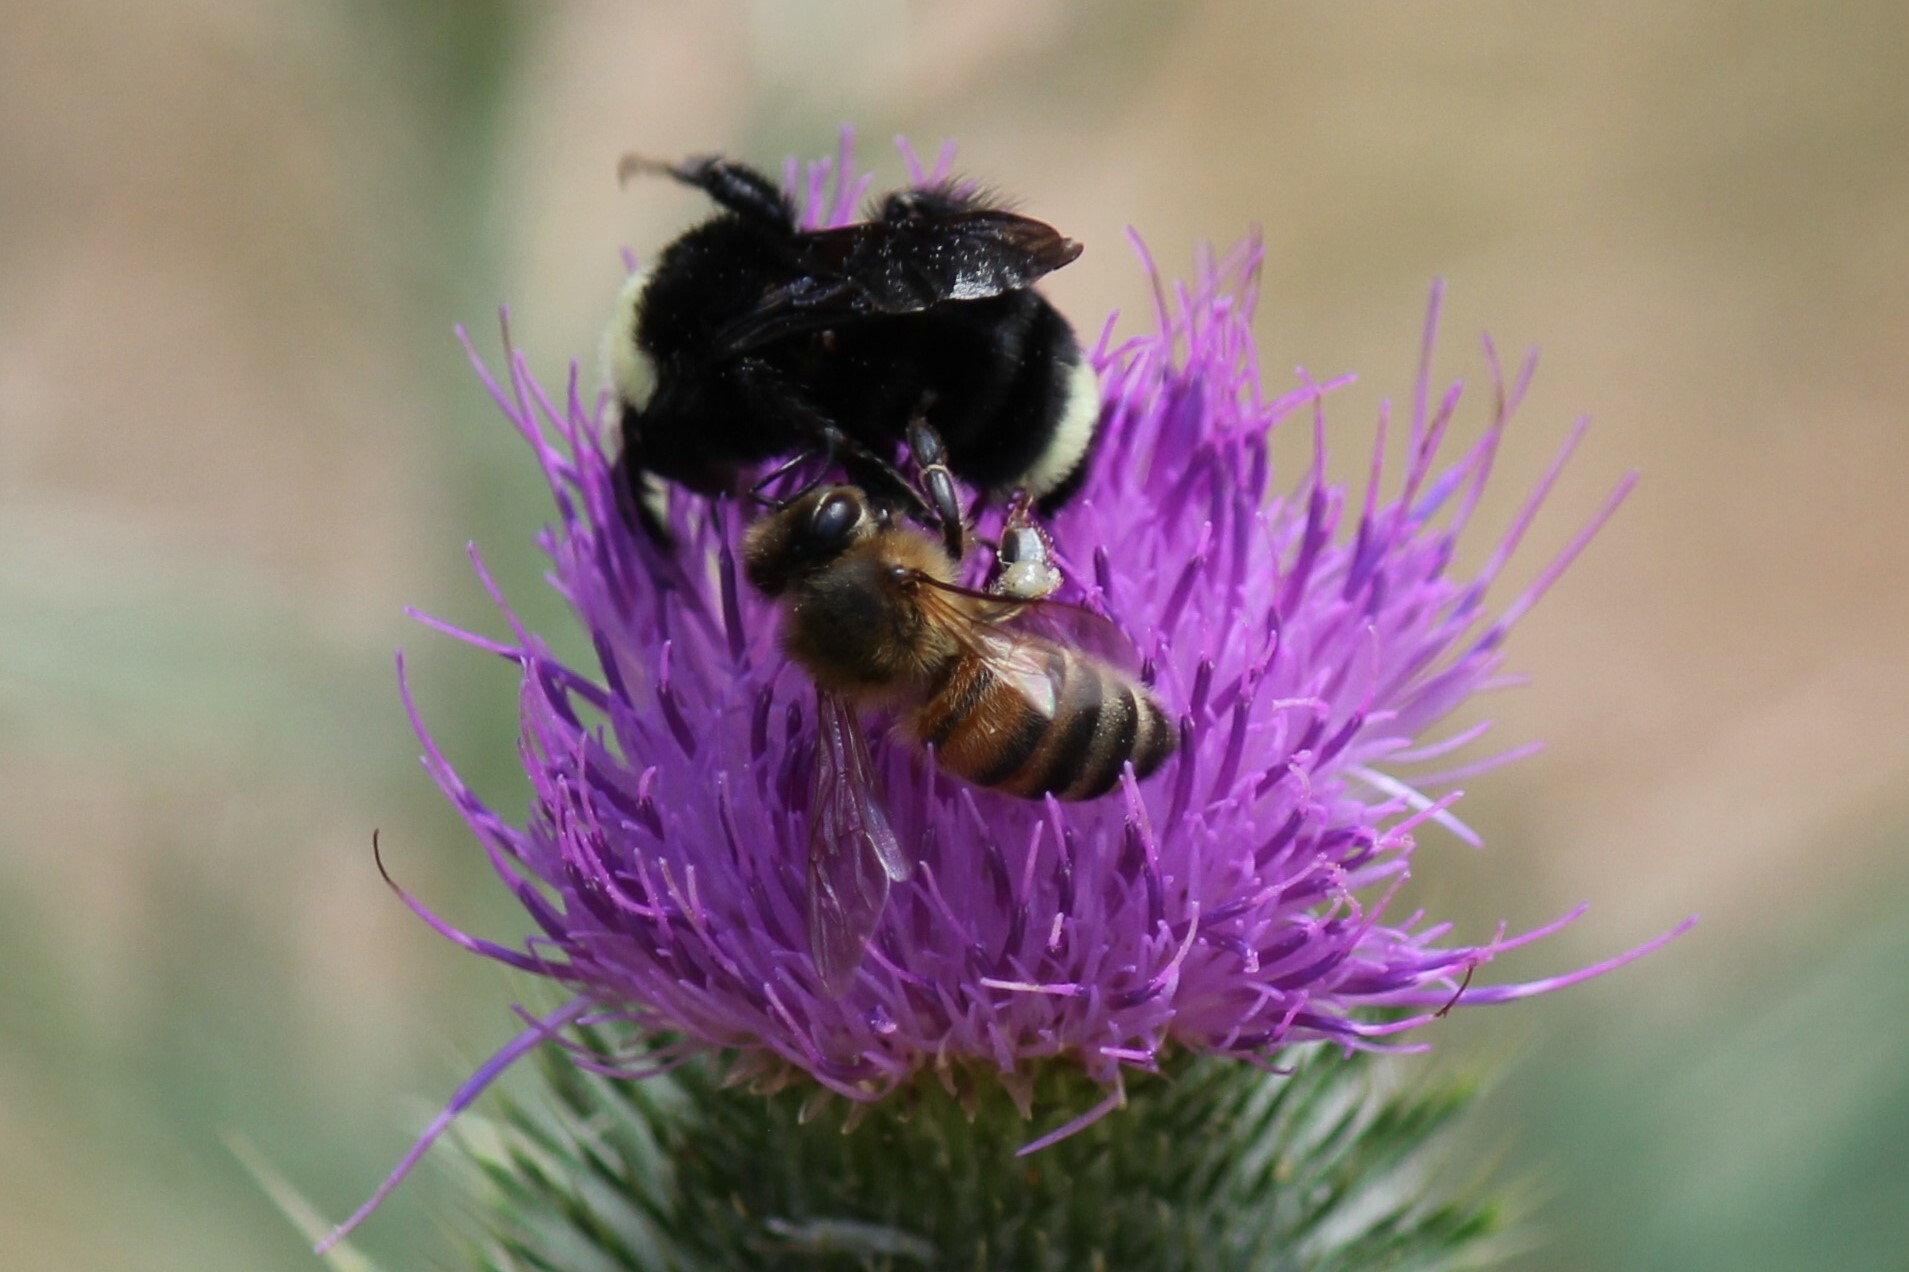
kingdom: Animalia
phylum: Arthropoda
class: Insecta
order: Hymenoptera
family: Apidae
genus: Apis
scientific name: Apis mellifera
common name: Honey bee
